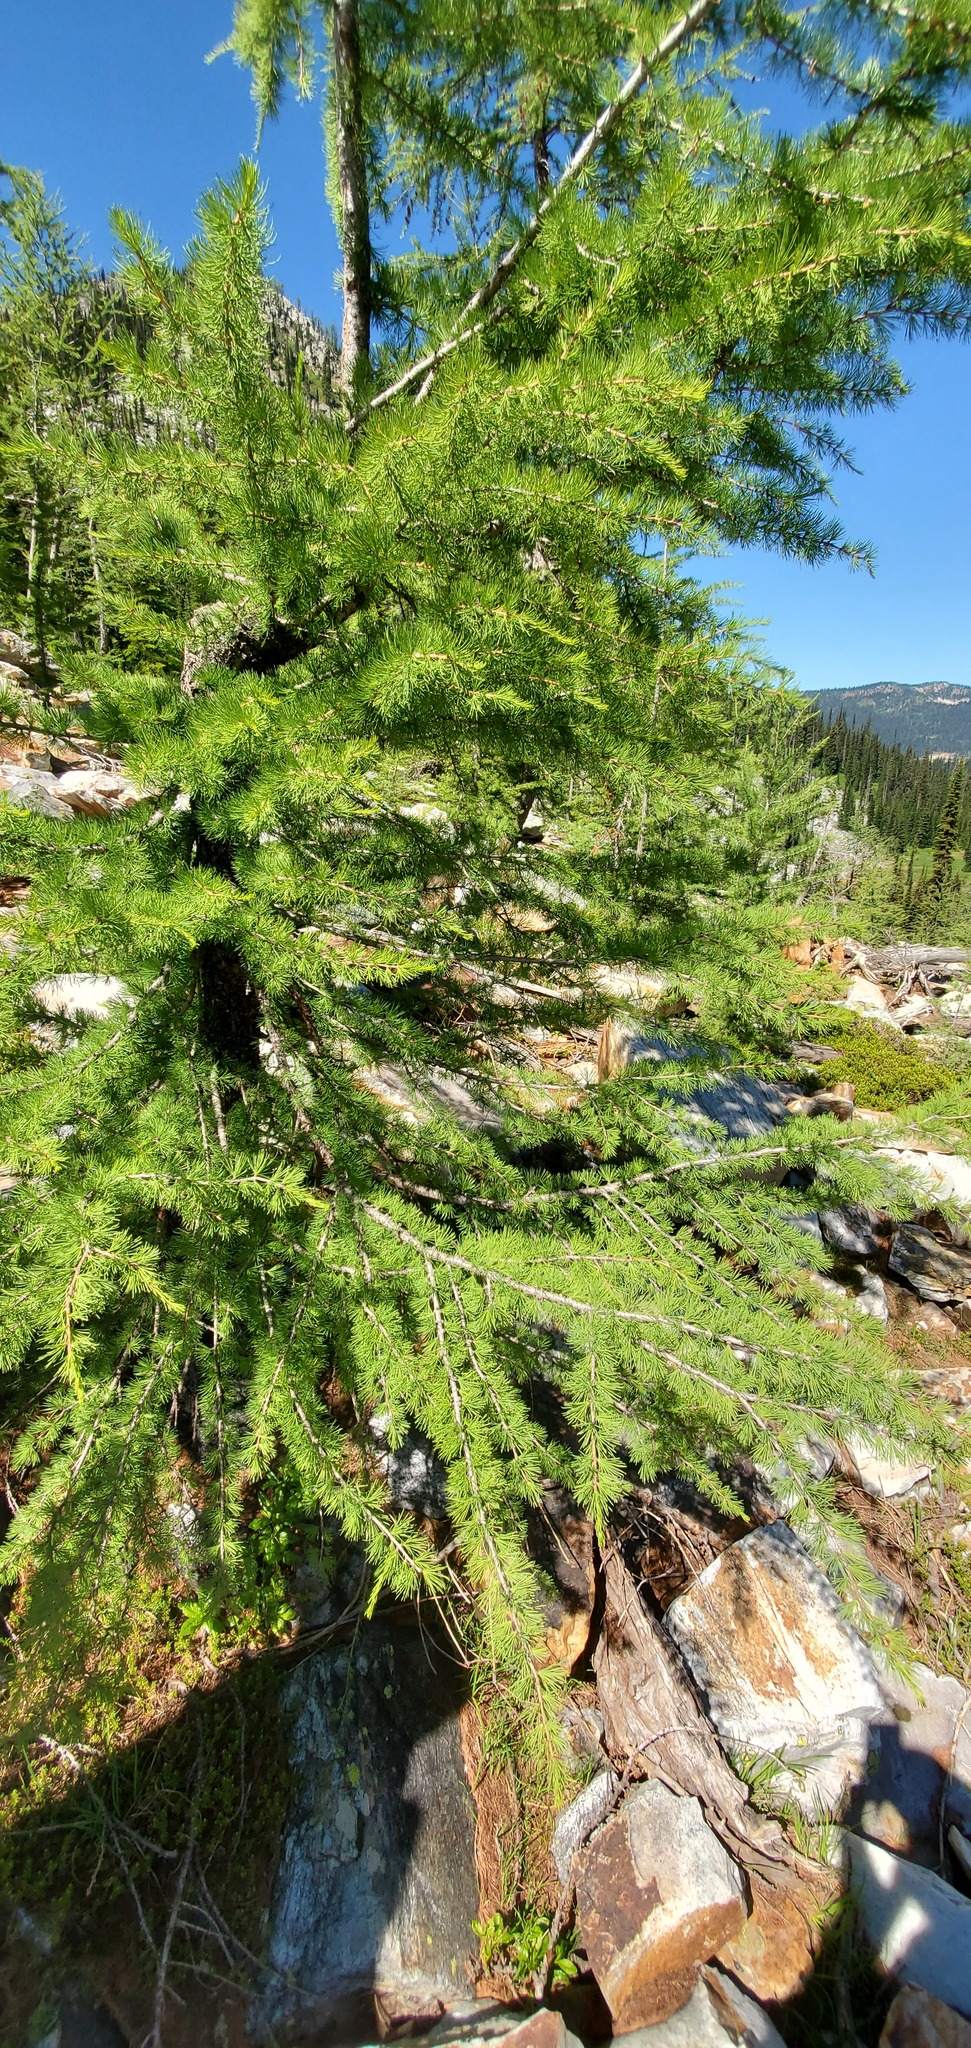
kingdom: Plantae
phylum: Tracheophyta
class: Pinopsida
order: Pinales
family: Pinaceae
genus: Larix
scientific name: Larix lyallii
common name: Alpine larch
